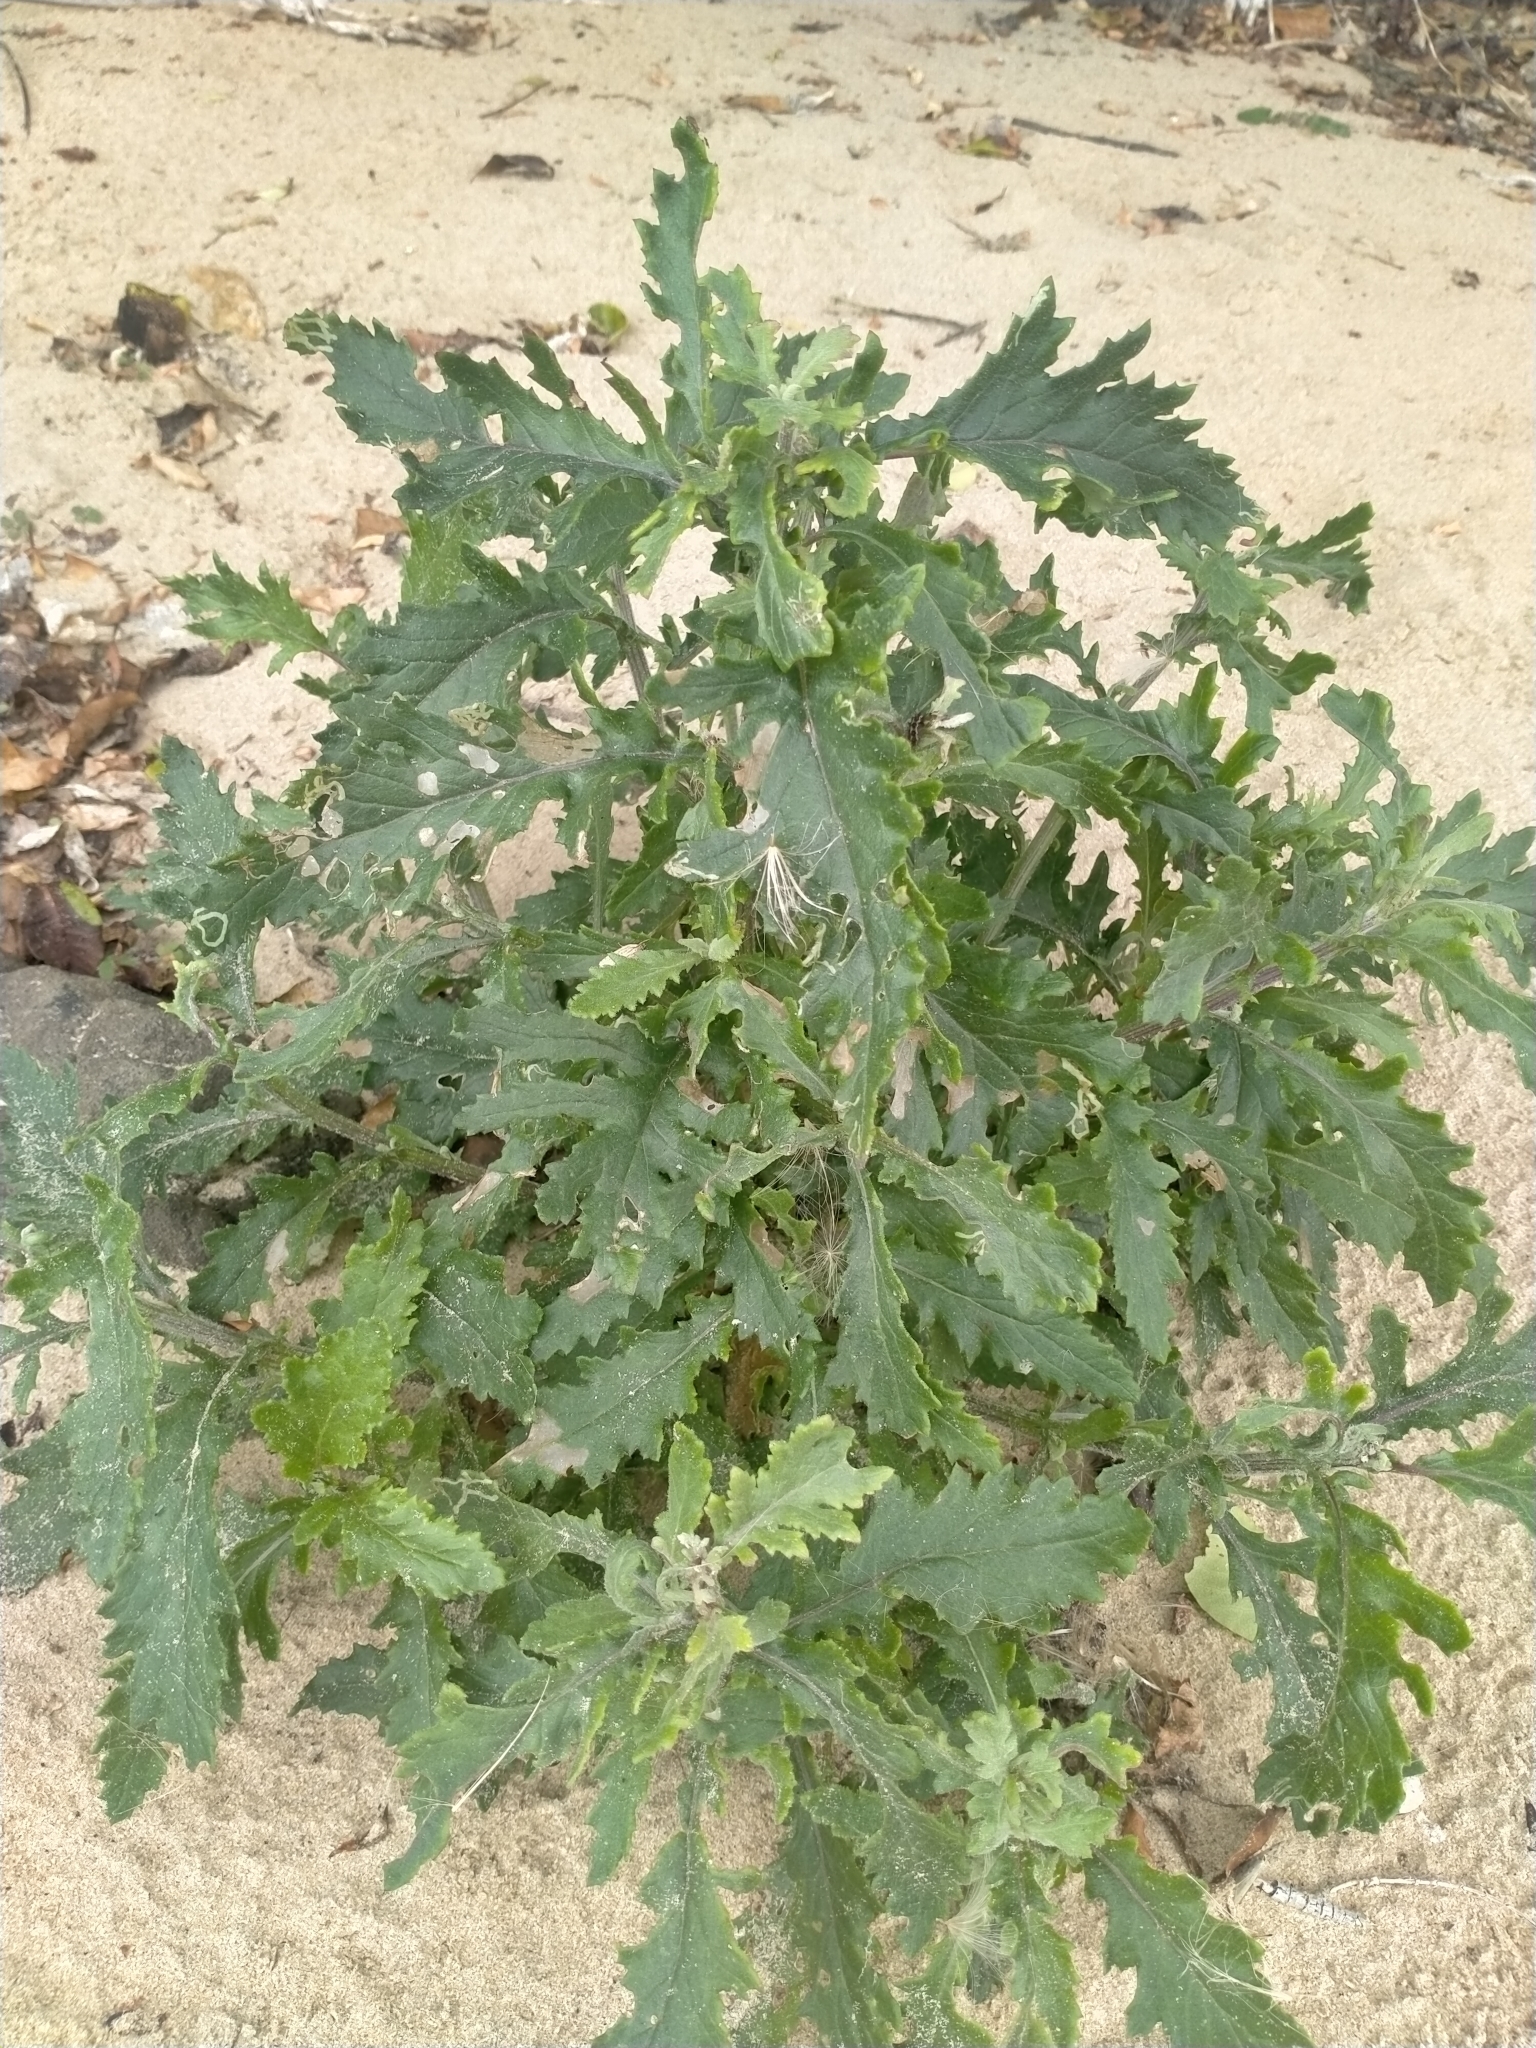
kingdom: Plantae
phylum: Tracheophyta
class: Magnoliopsida
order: Asterales
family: Asteraceae
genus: Senecio
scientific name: Senecio biserratus
